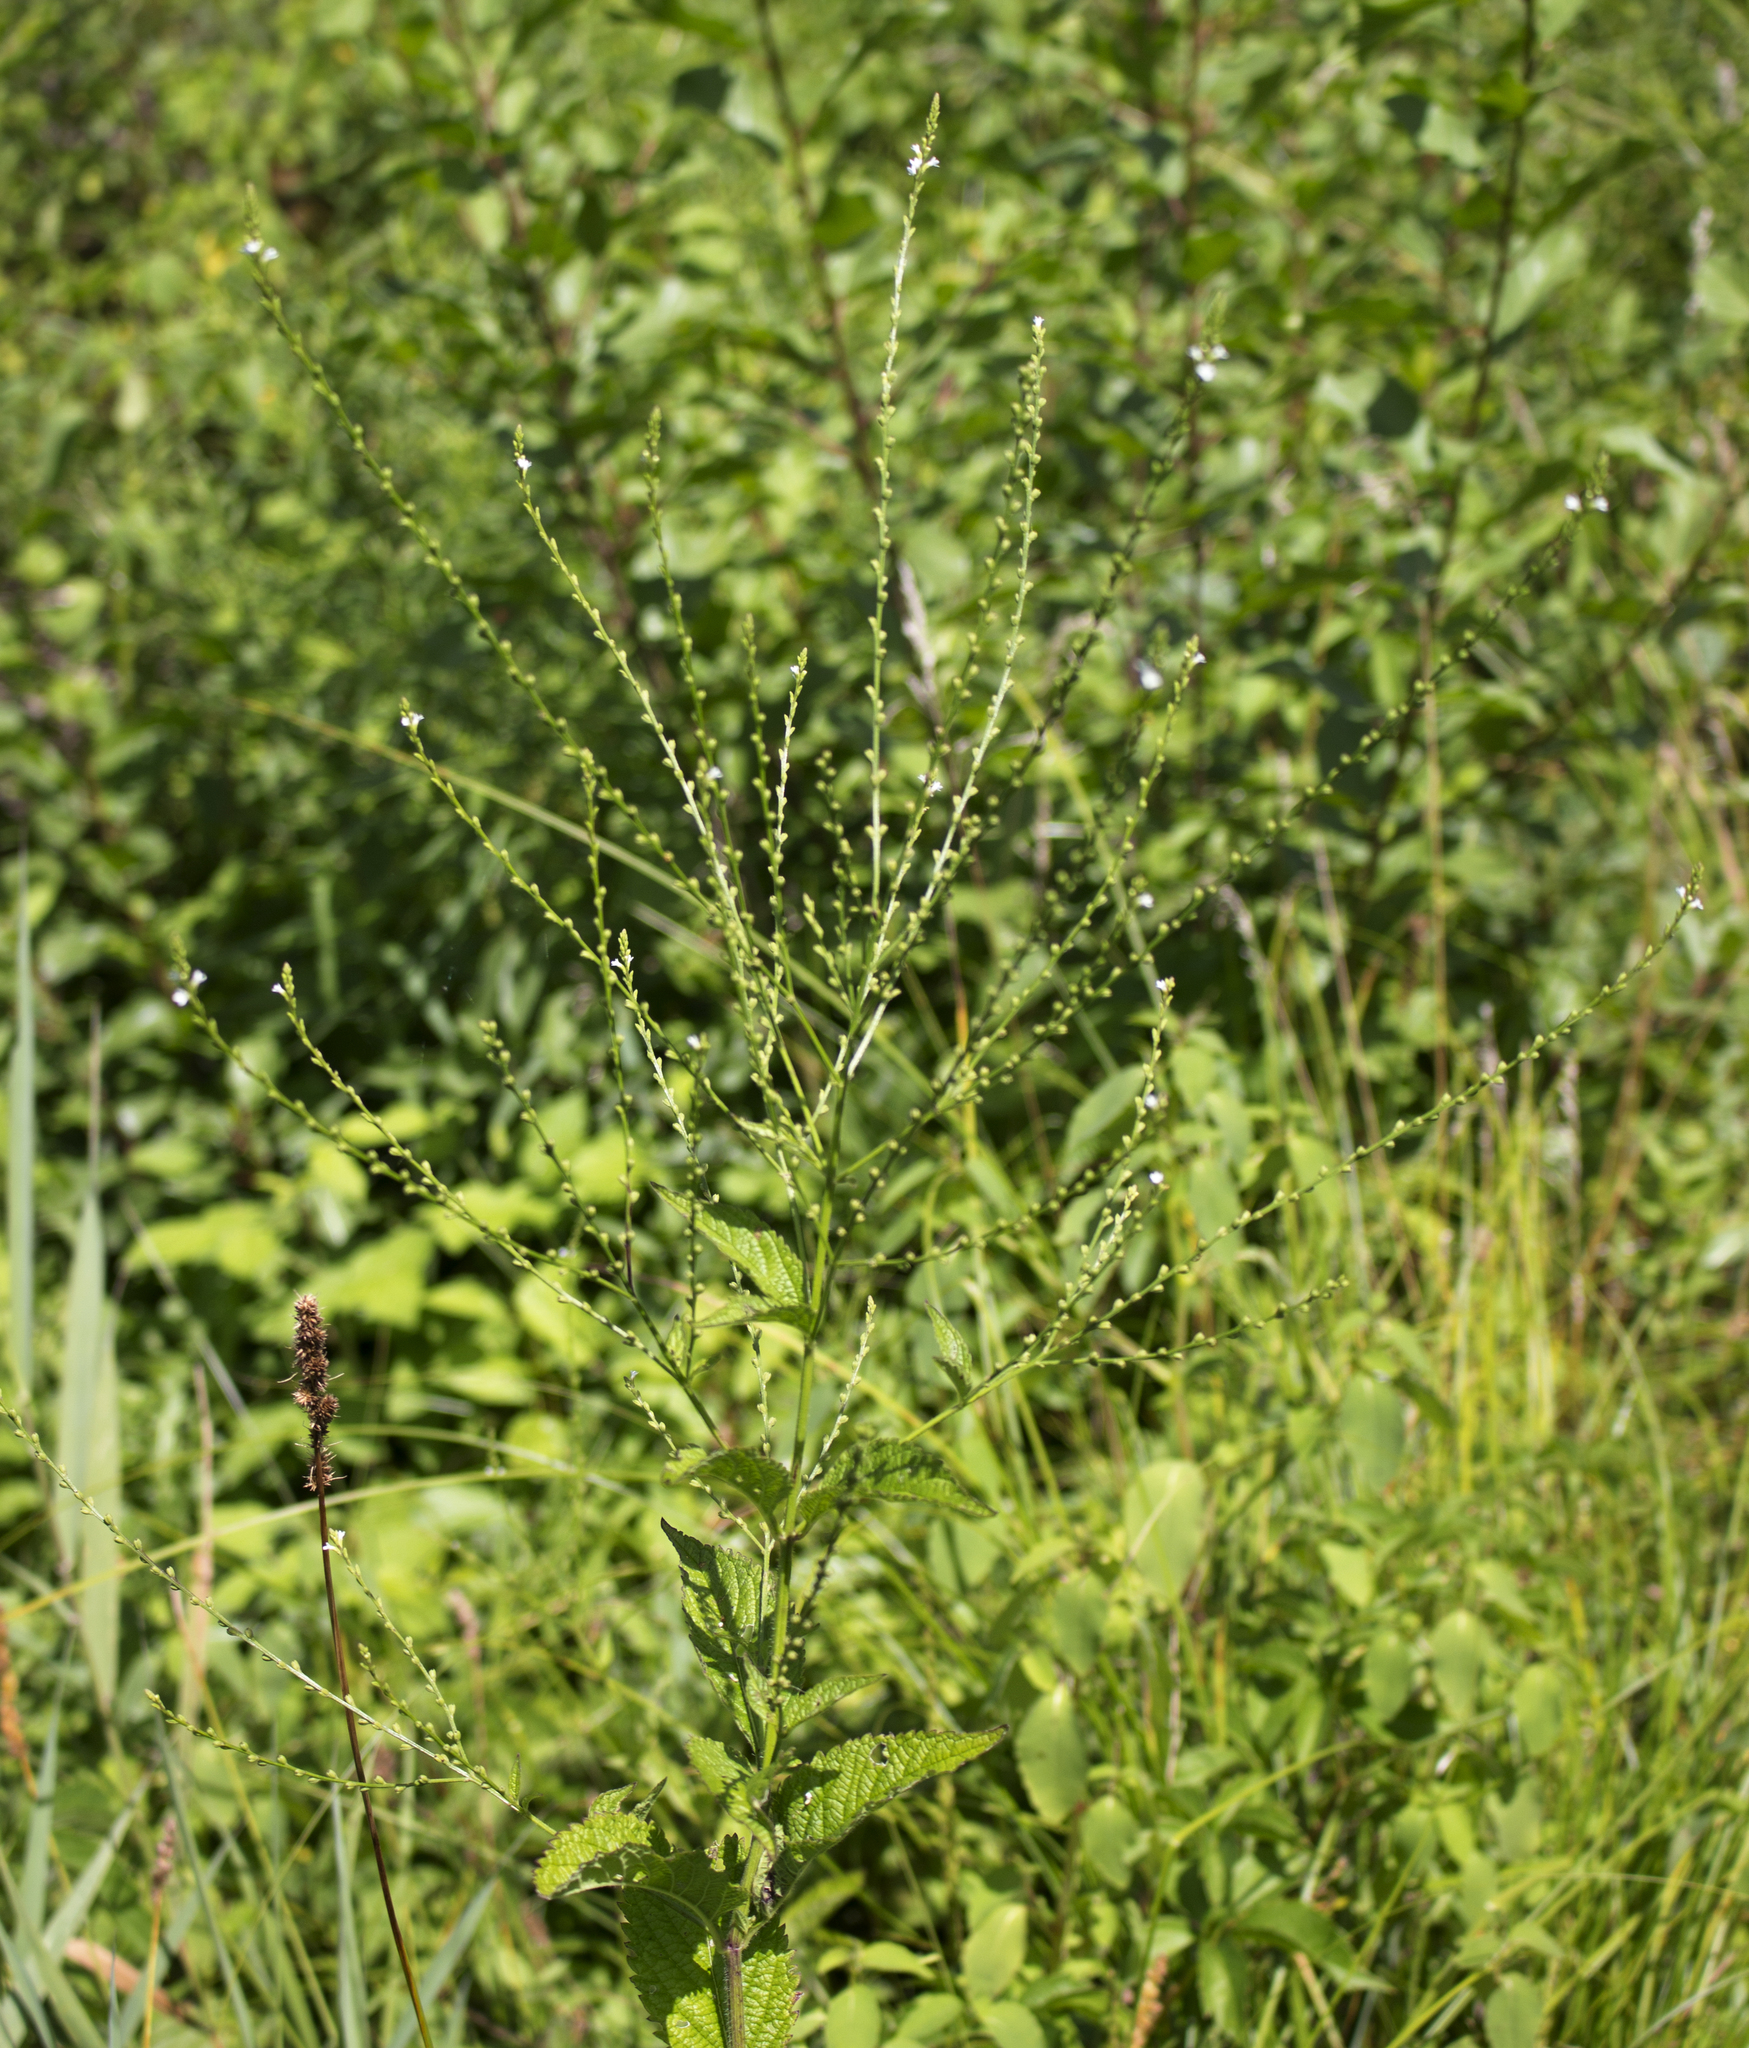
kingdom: Plantae
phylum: Tracheophyta
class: Magnoliopsida
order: Lamiales
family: Verbenaceae
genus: Verbena
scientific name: Verbena urticifolia
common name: Nettle-leaved vervain
